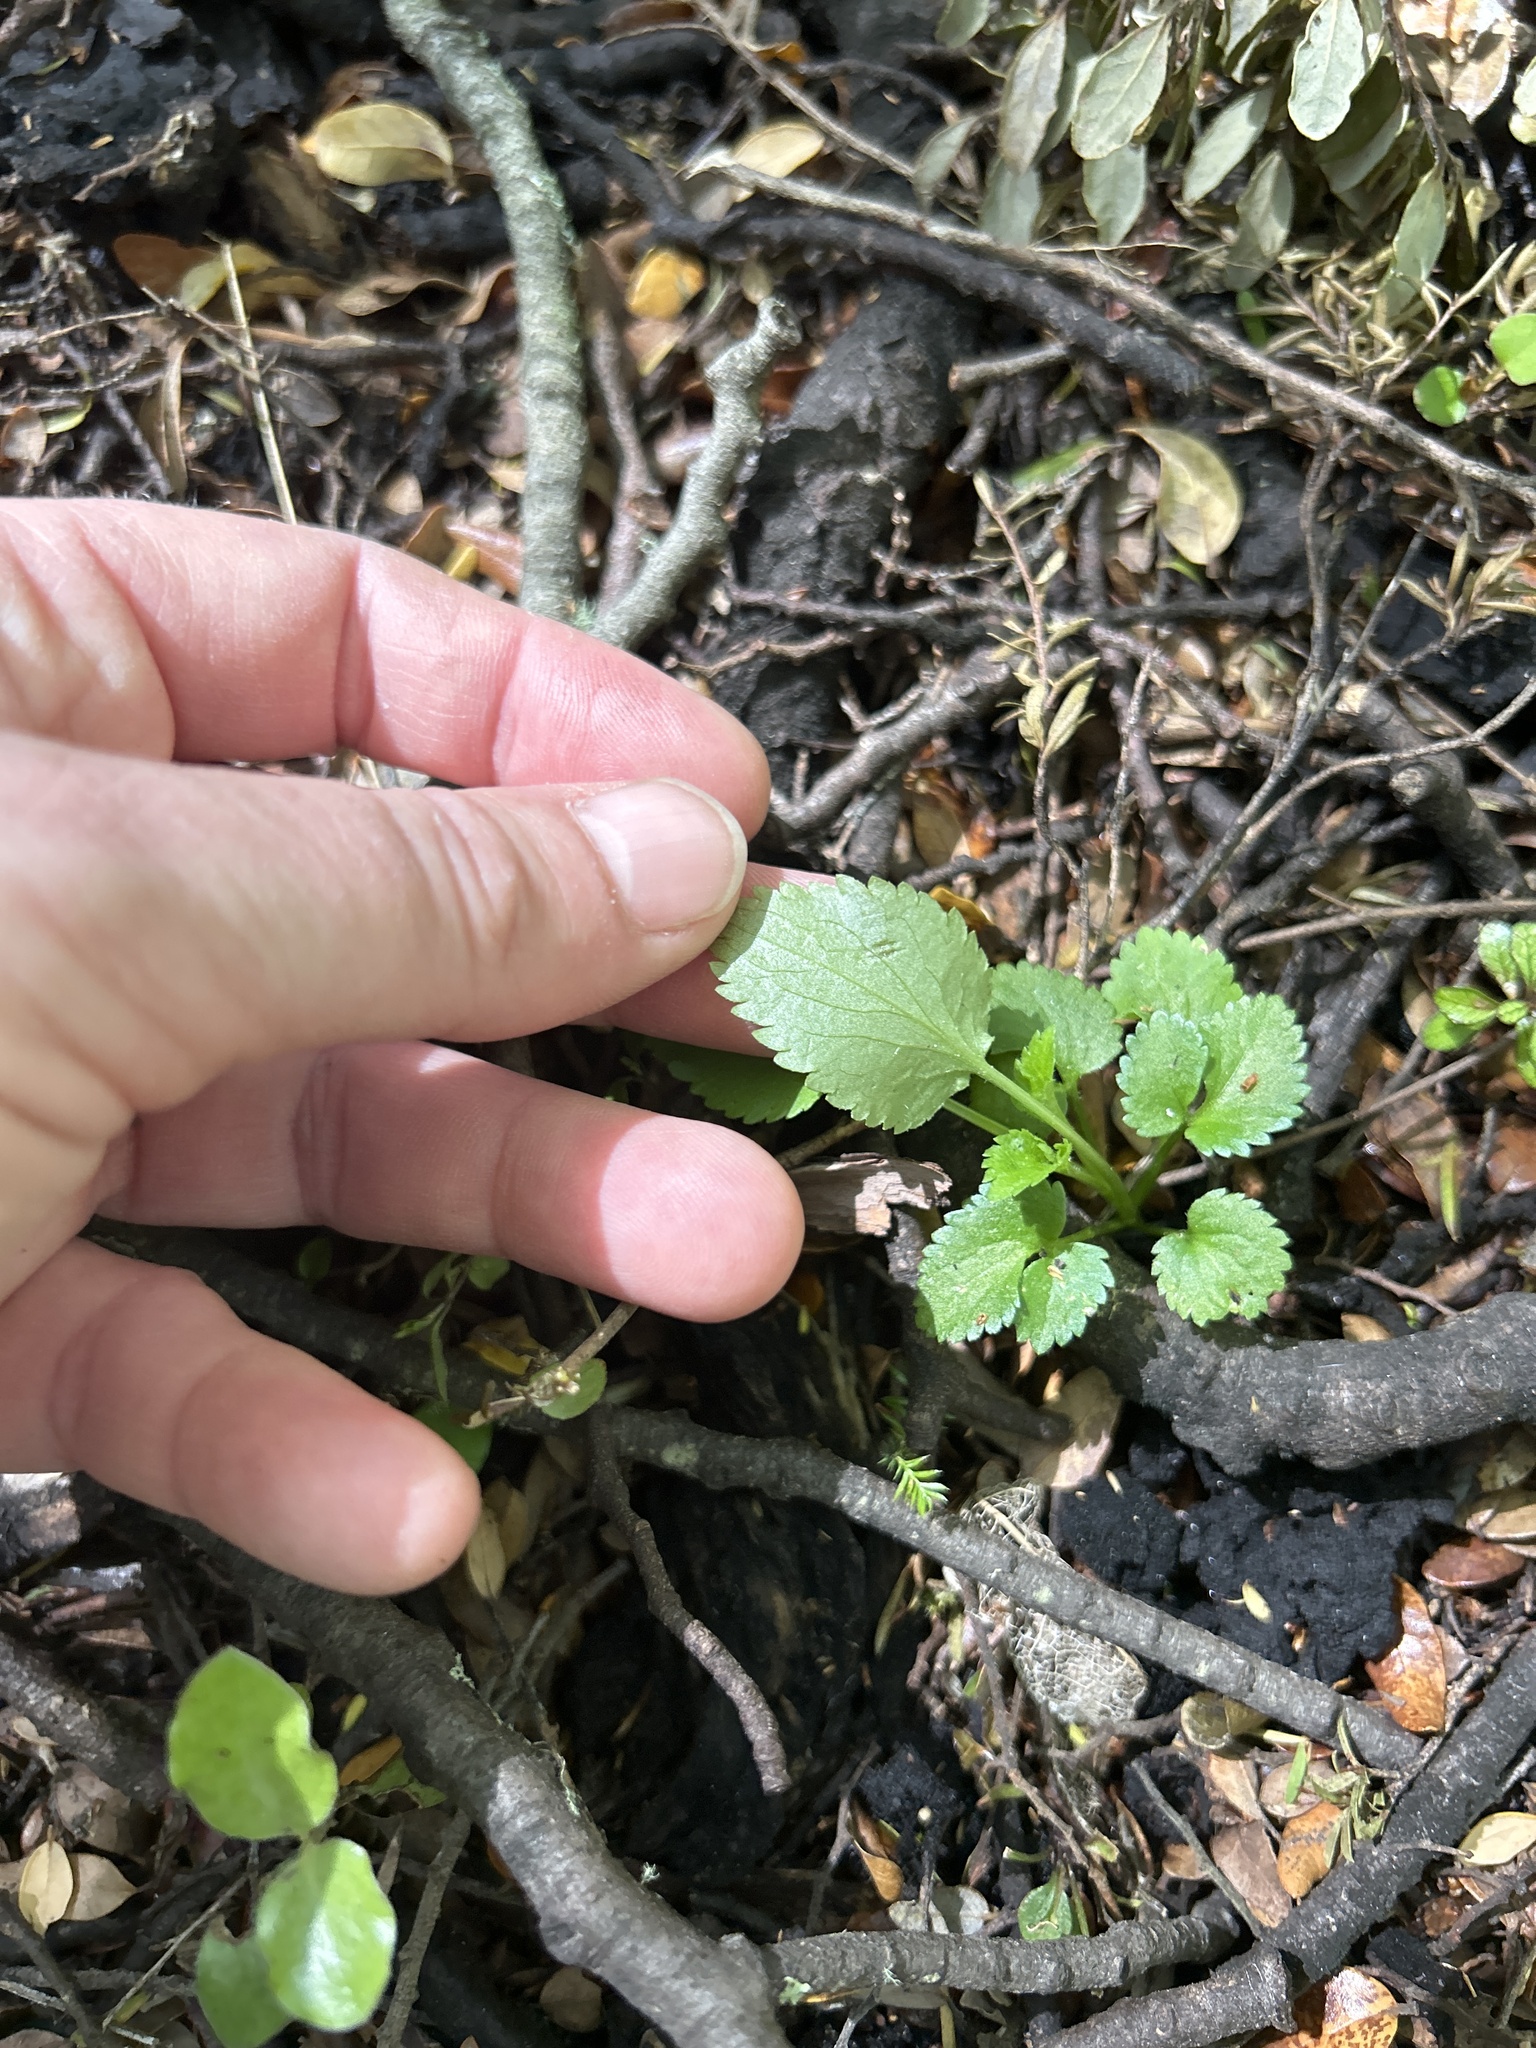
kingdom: Plantae
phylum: Tracheophyta
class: Magnoliopsida
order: Lamiales
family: Lamiaceae
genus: Stachys
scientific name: Stachys sylvatica
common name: Hedge woundwort
